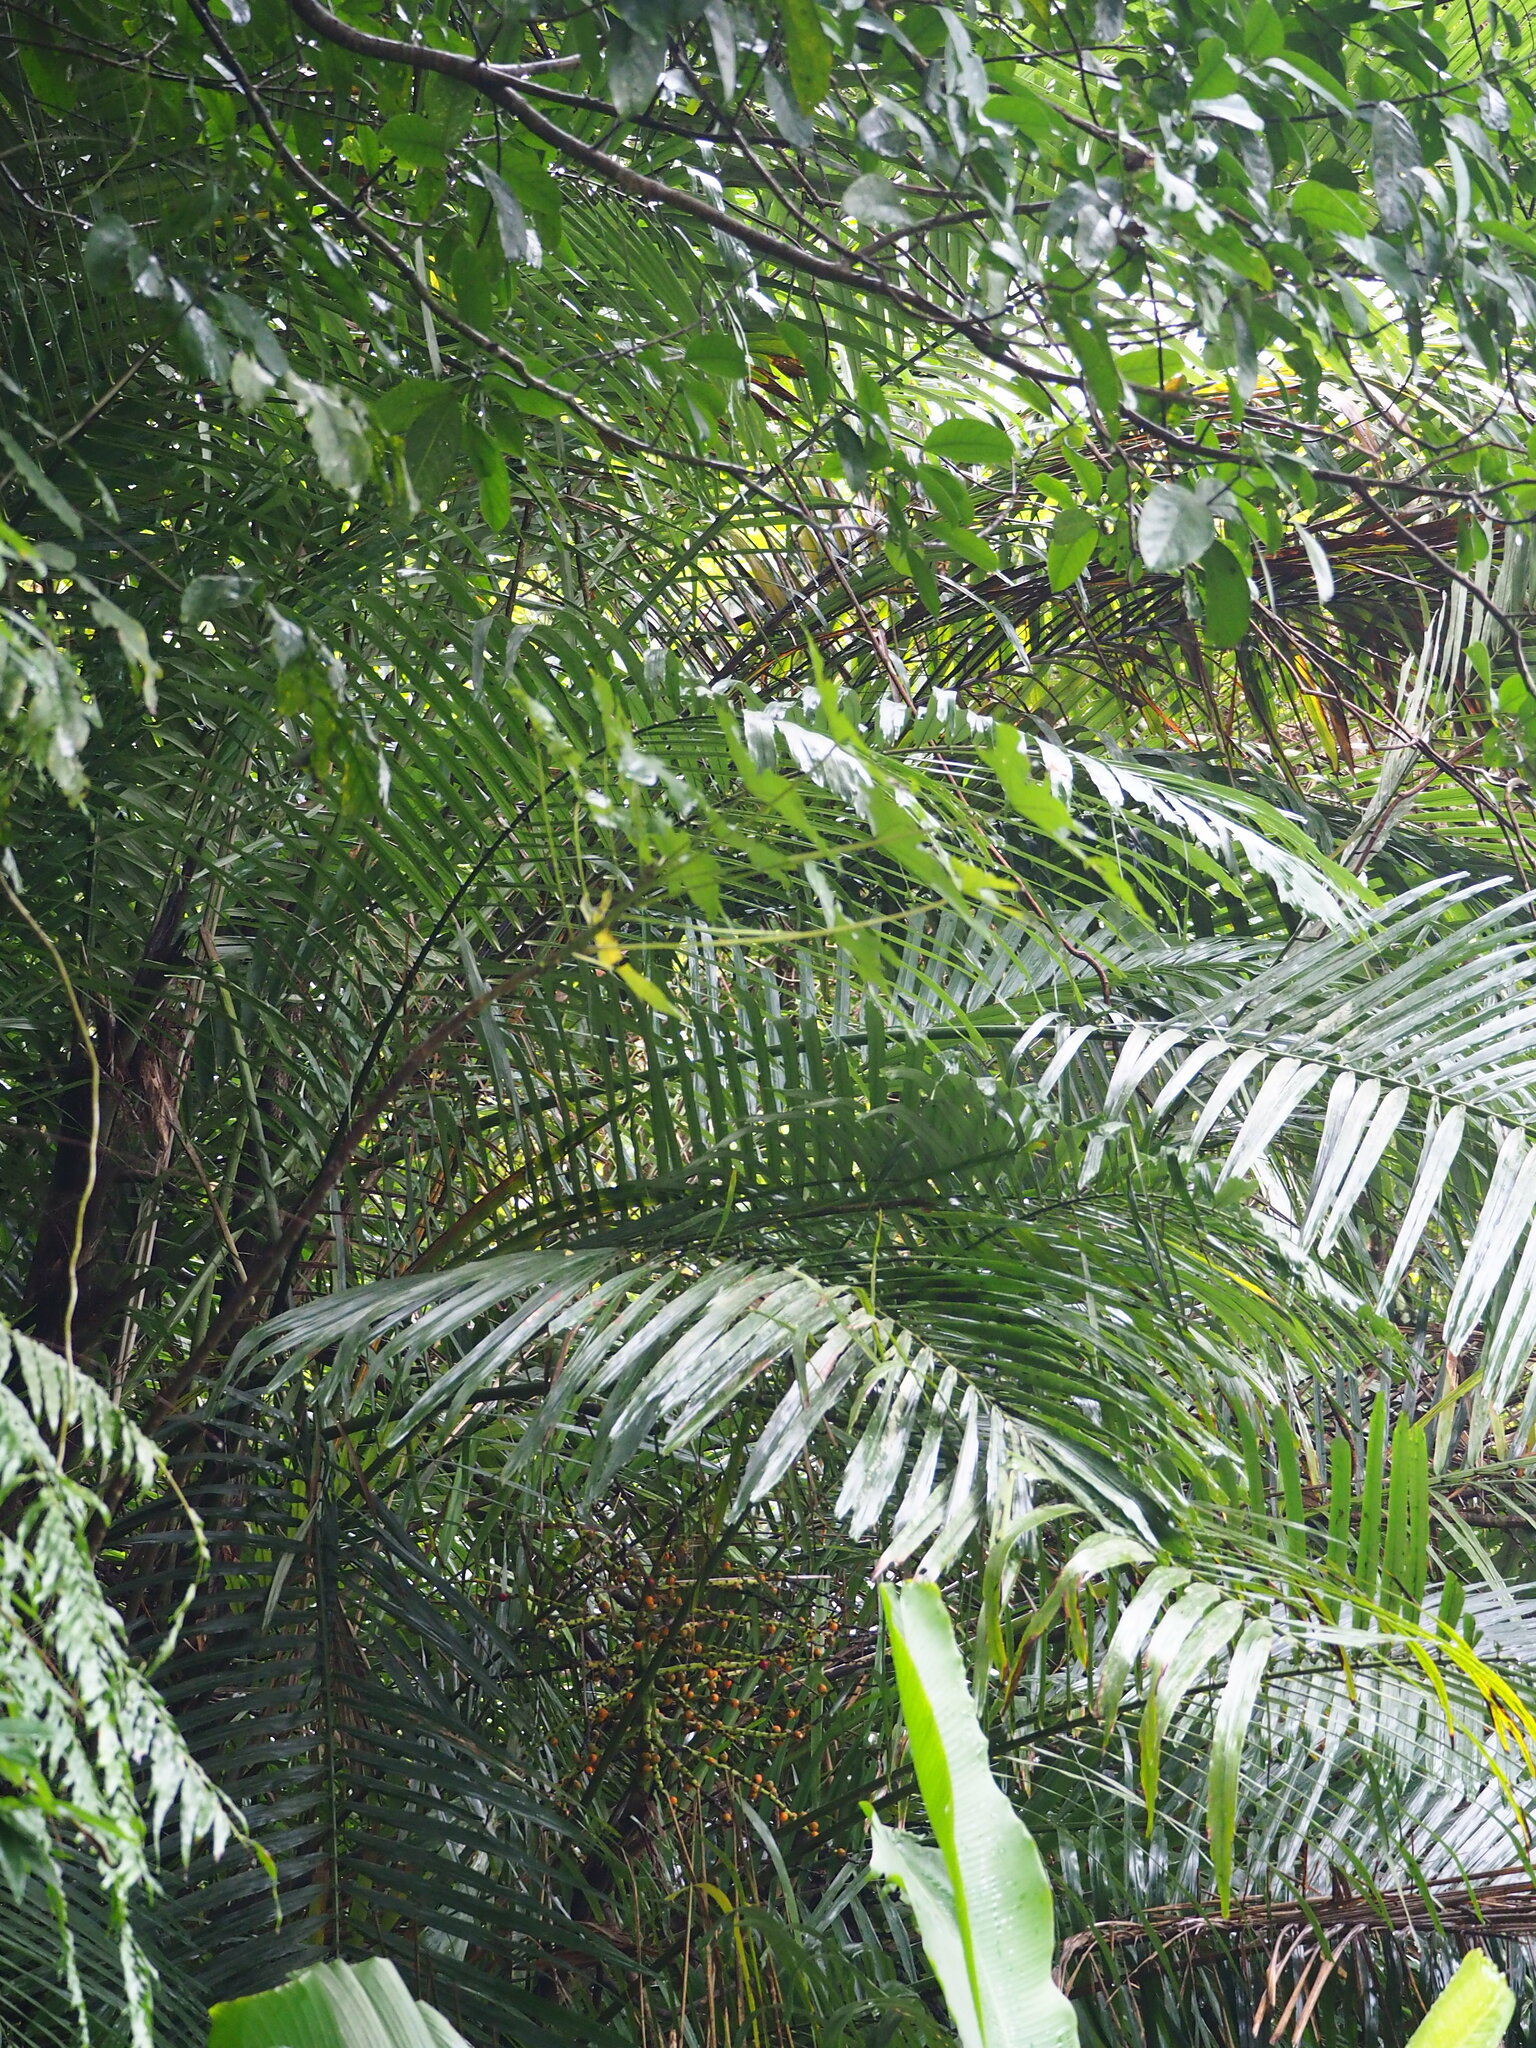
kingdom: Plantae
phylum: Tracheophyta
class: Liliopsida
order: Arecales
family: Arecaceae
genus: Arenga
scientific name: Arenga engleri
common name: Formosan sugar palm
